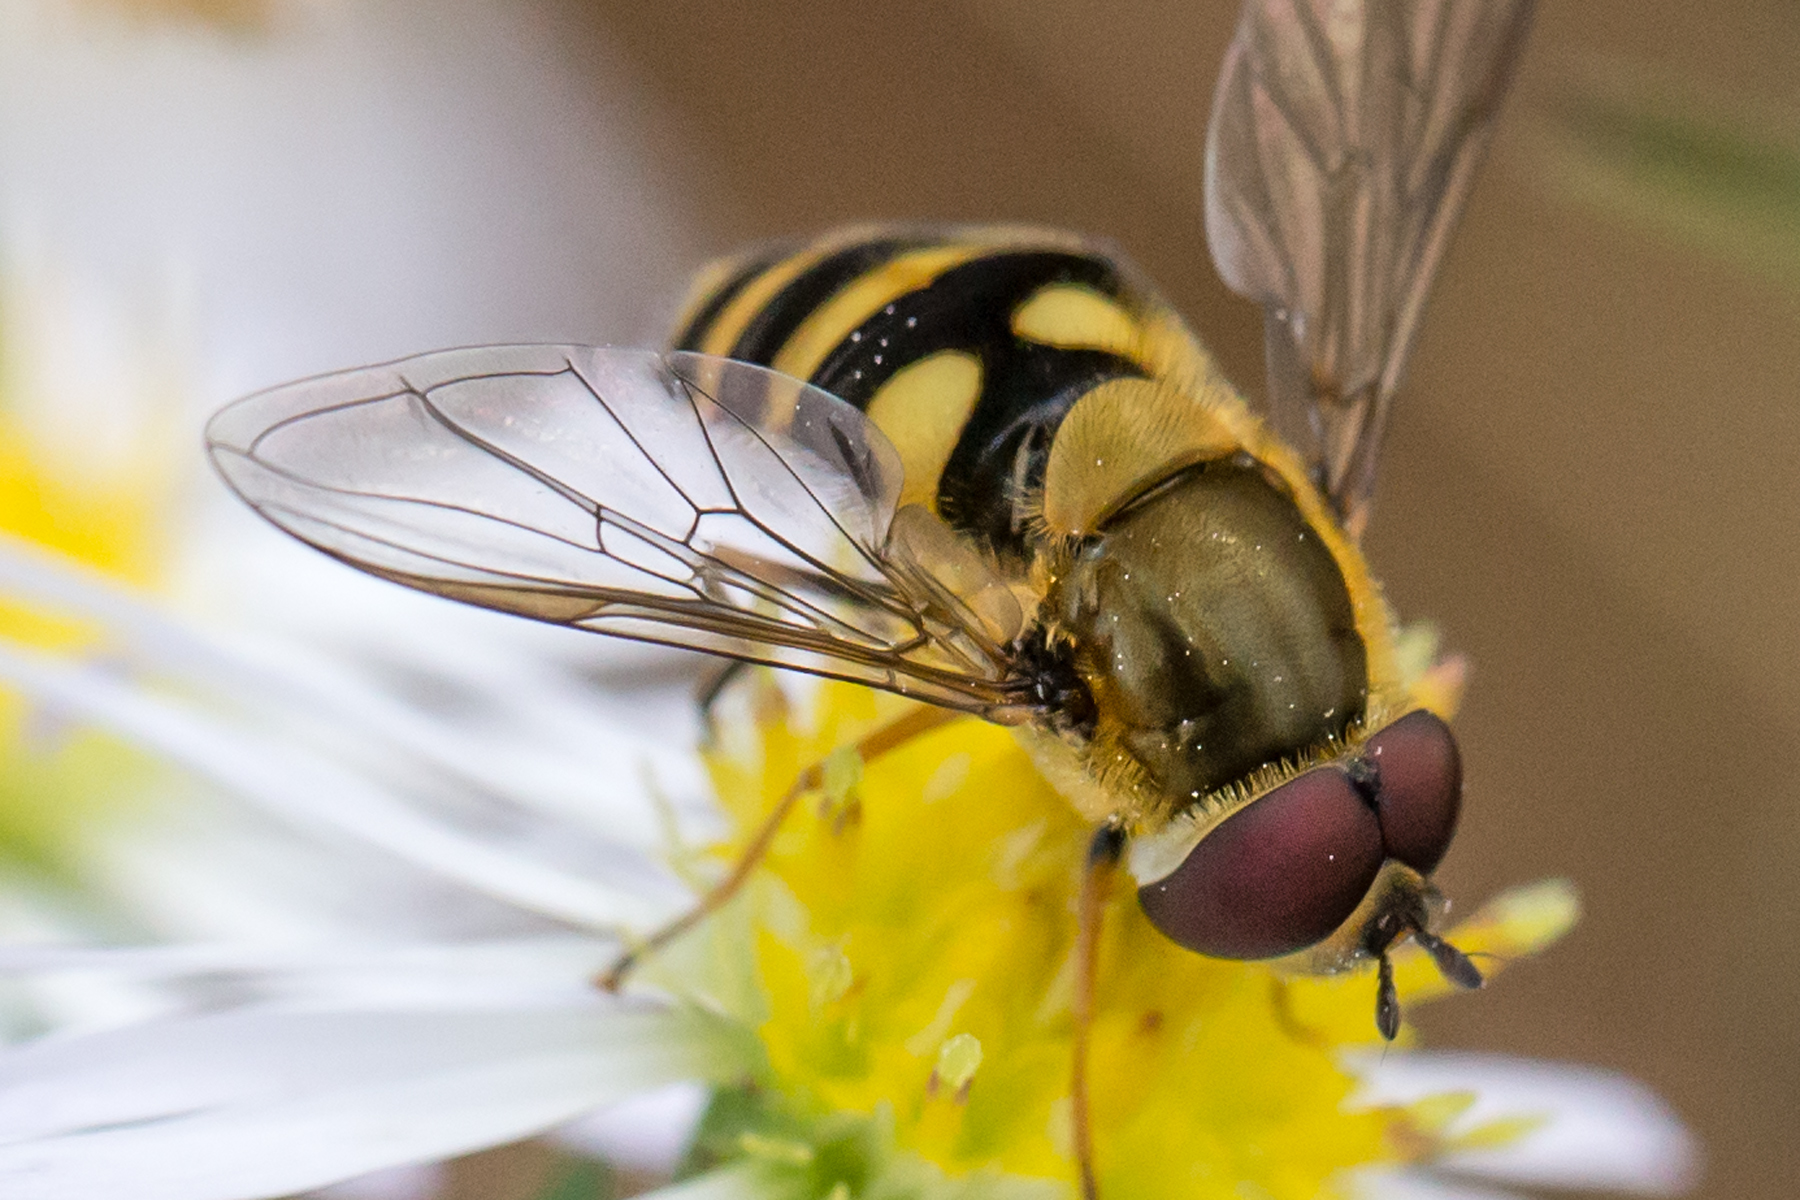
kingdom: Animalia
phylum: Arthropoda
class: Insecta
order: Diptera
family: Syrphidae
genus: Syrphus
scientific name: Syrphus
